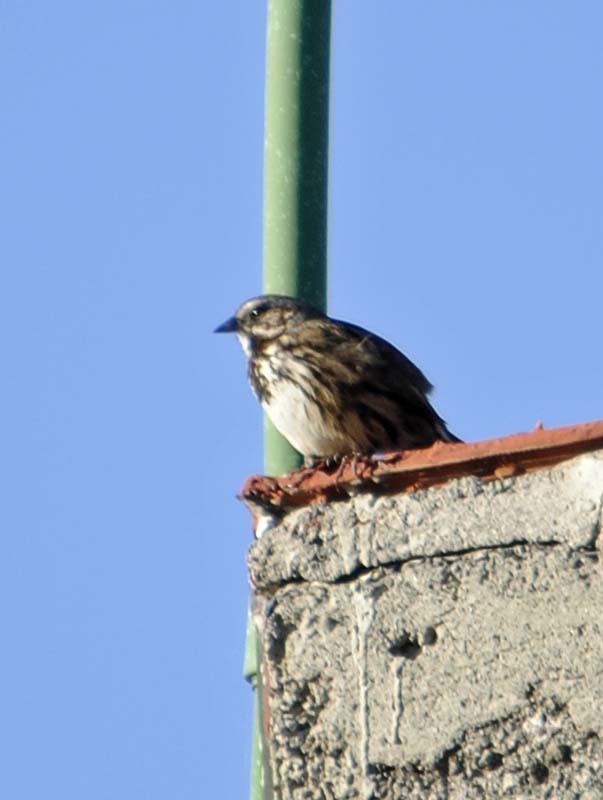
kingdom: Animalia
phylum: Chordata
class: Aves
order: Passeriformes
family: Passerellidae
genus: Melospiza
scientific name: Melospiza melodia
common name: Song sparrow
